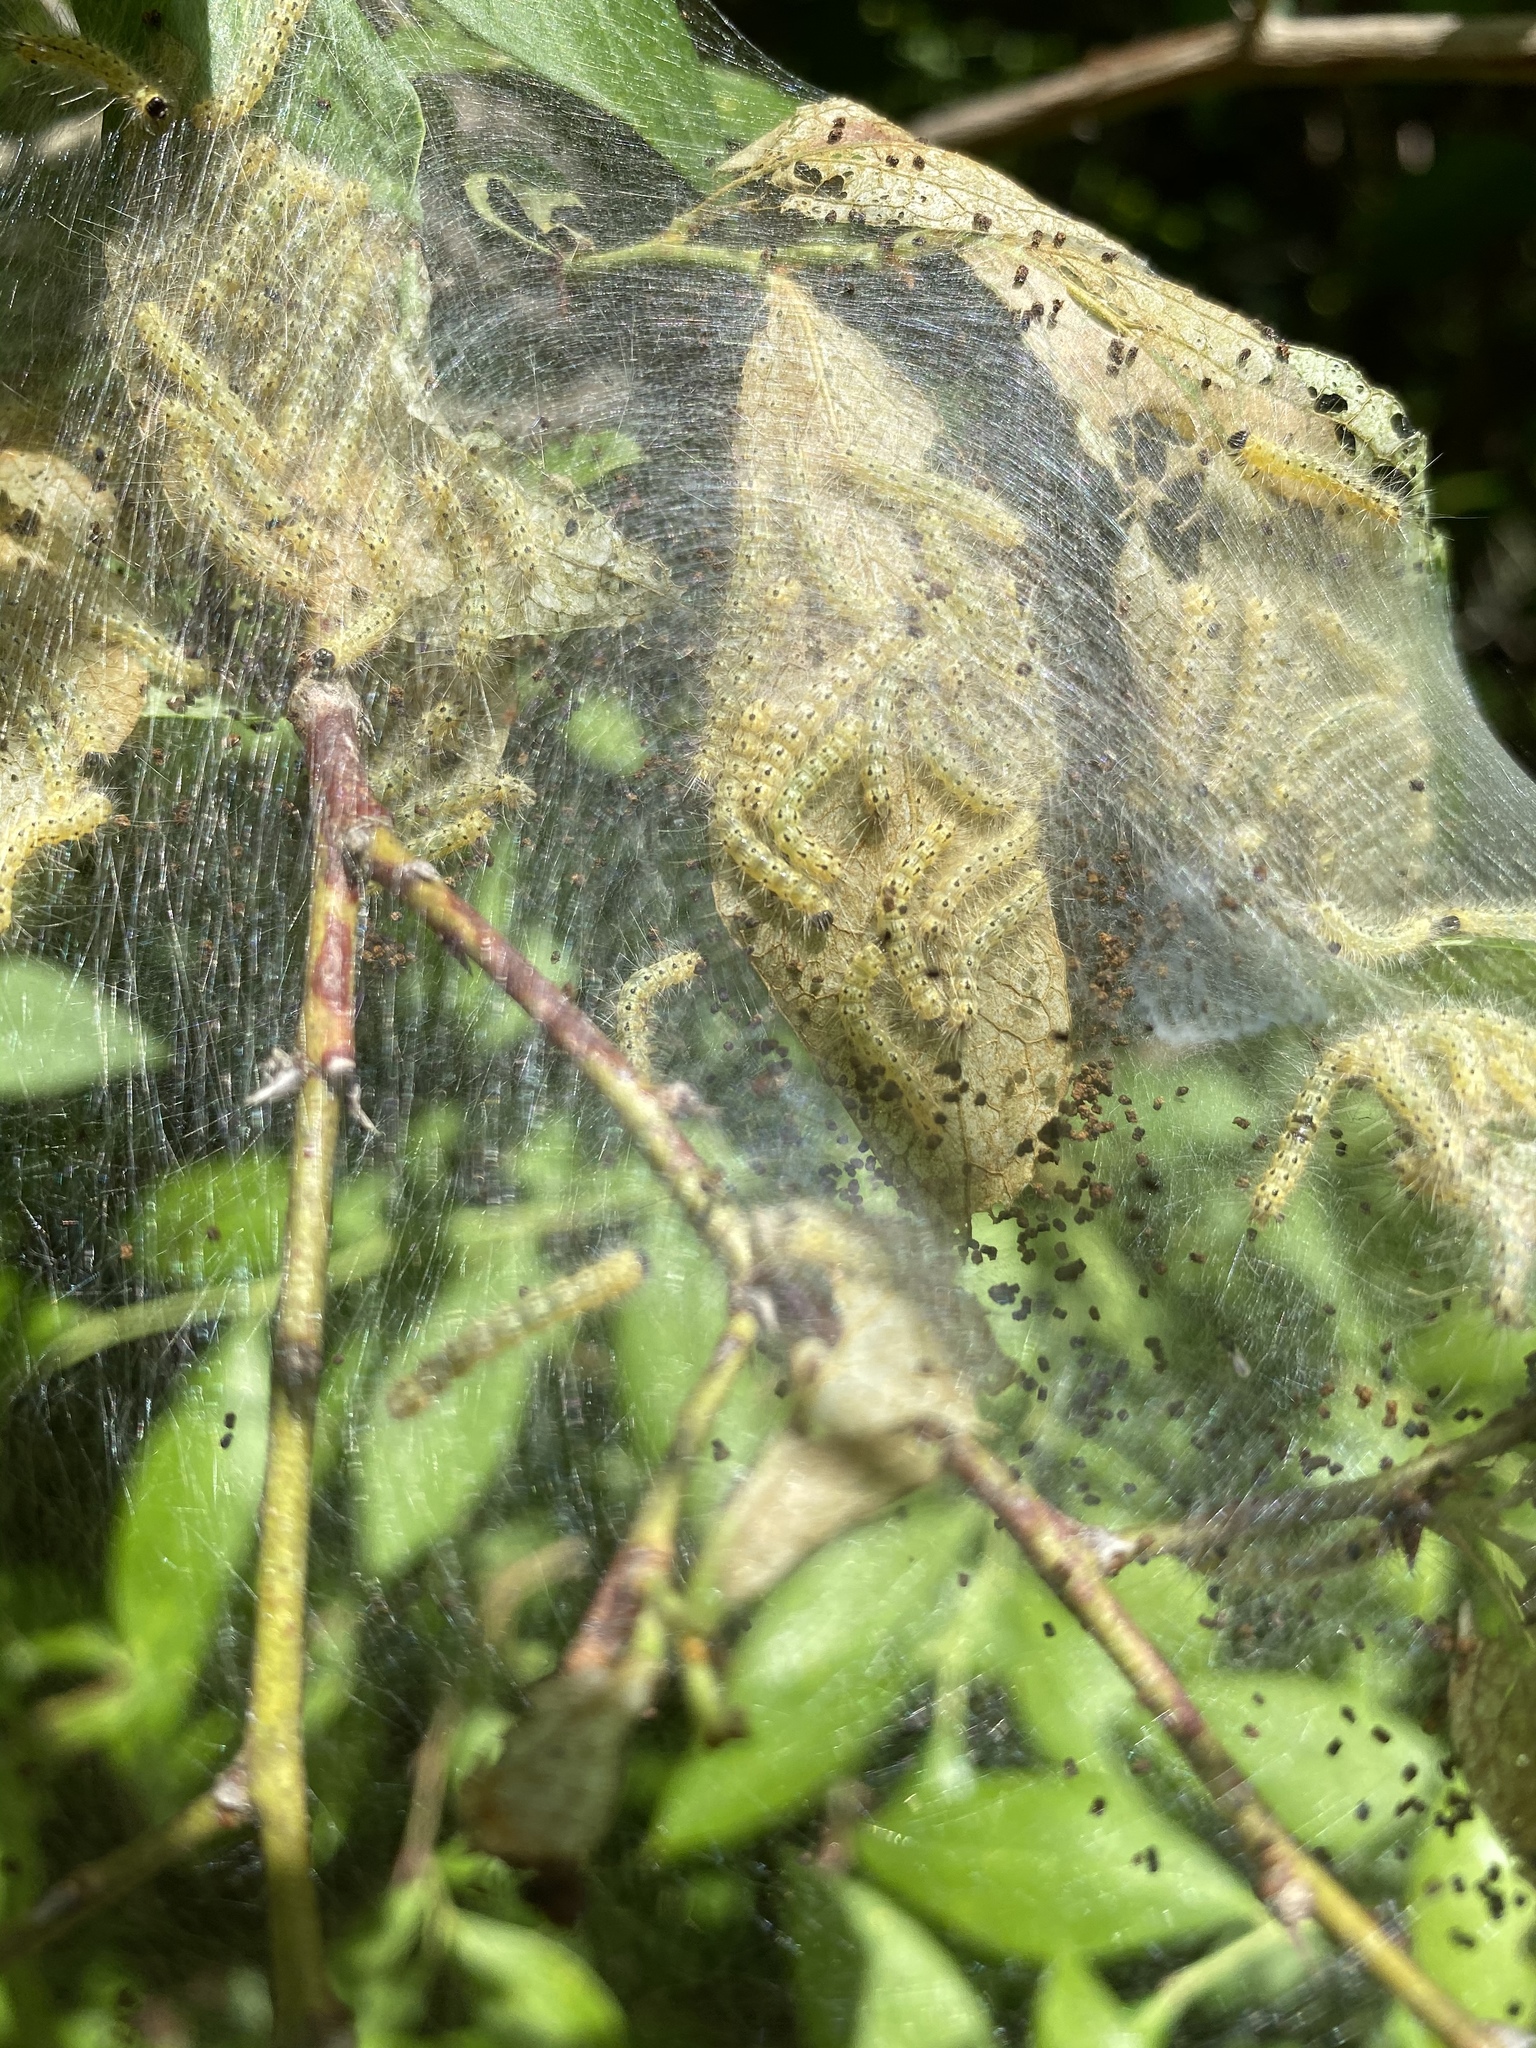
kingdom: Animalia
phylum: Arthropoda
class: Insecta
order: Lepidoptera
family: Erebidae
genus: Hyphantria
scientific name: Hyphantria cunea
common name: American white moth
